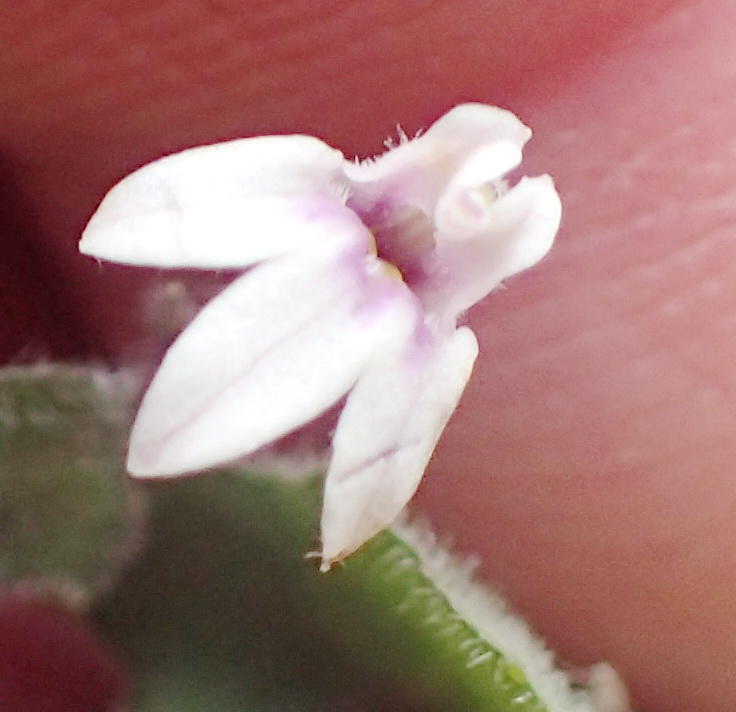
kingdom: Plantae
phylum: Tracheophyta
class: Magnoliopsida
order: Asterales
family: Campanulaceae
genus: Lobelia
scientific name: Lobelia ardisiandroides
